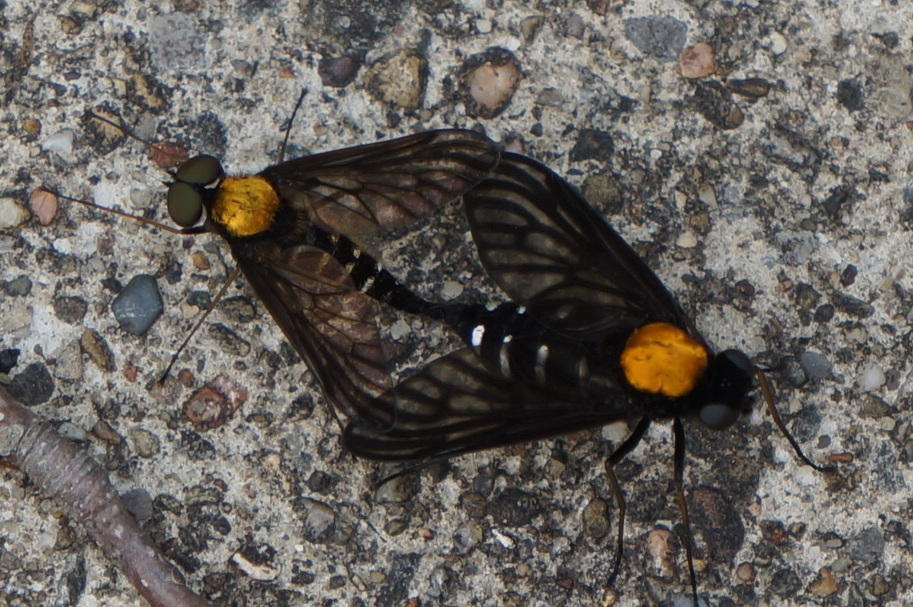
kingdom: Animalia
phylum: Arthropoda
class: Insecta
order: Diptera
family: Rhagionidae
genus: Chrysopilus
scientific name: Chrysopilus thoracicus
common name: Golden-backed snipe fly
